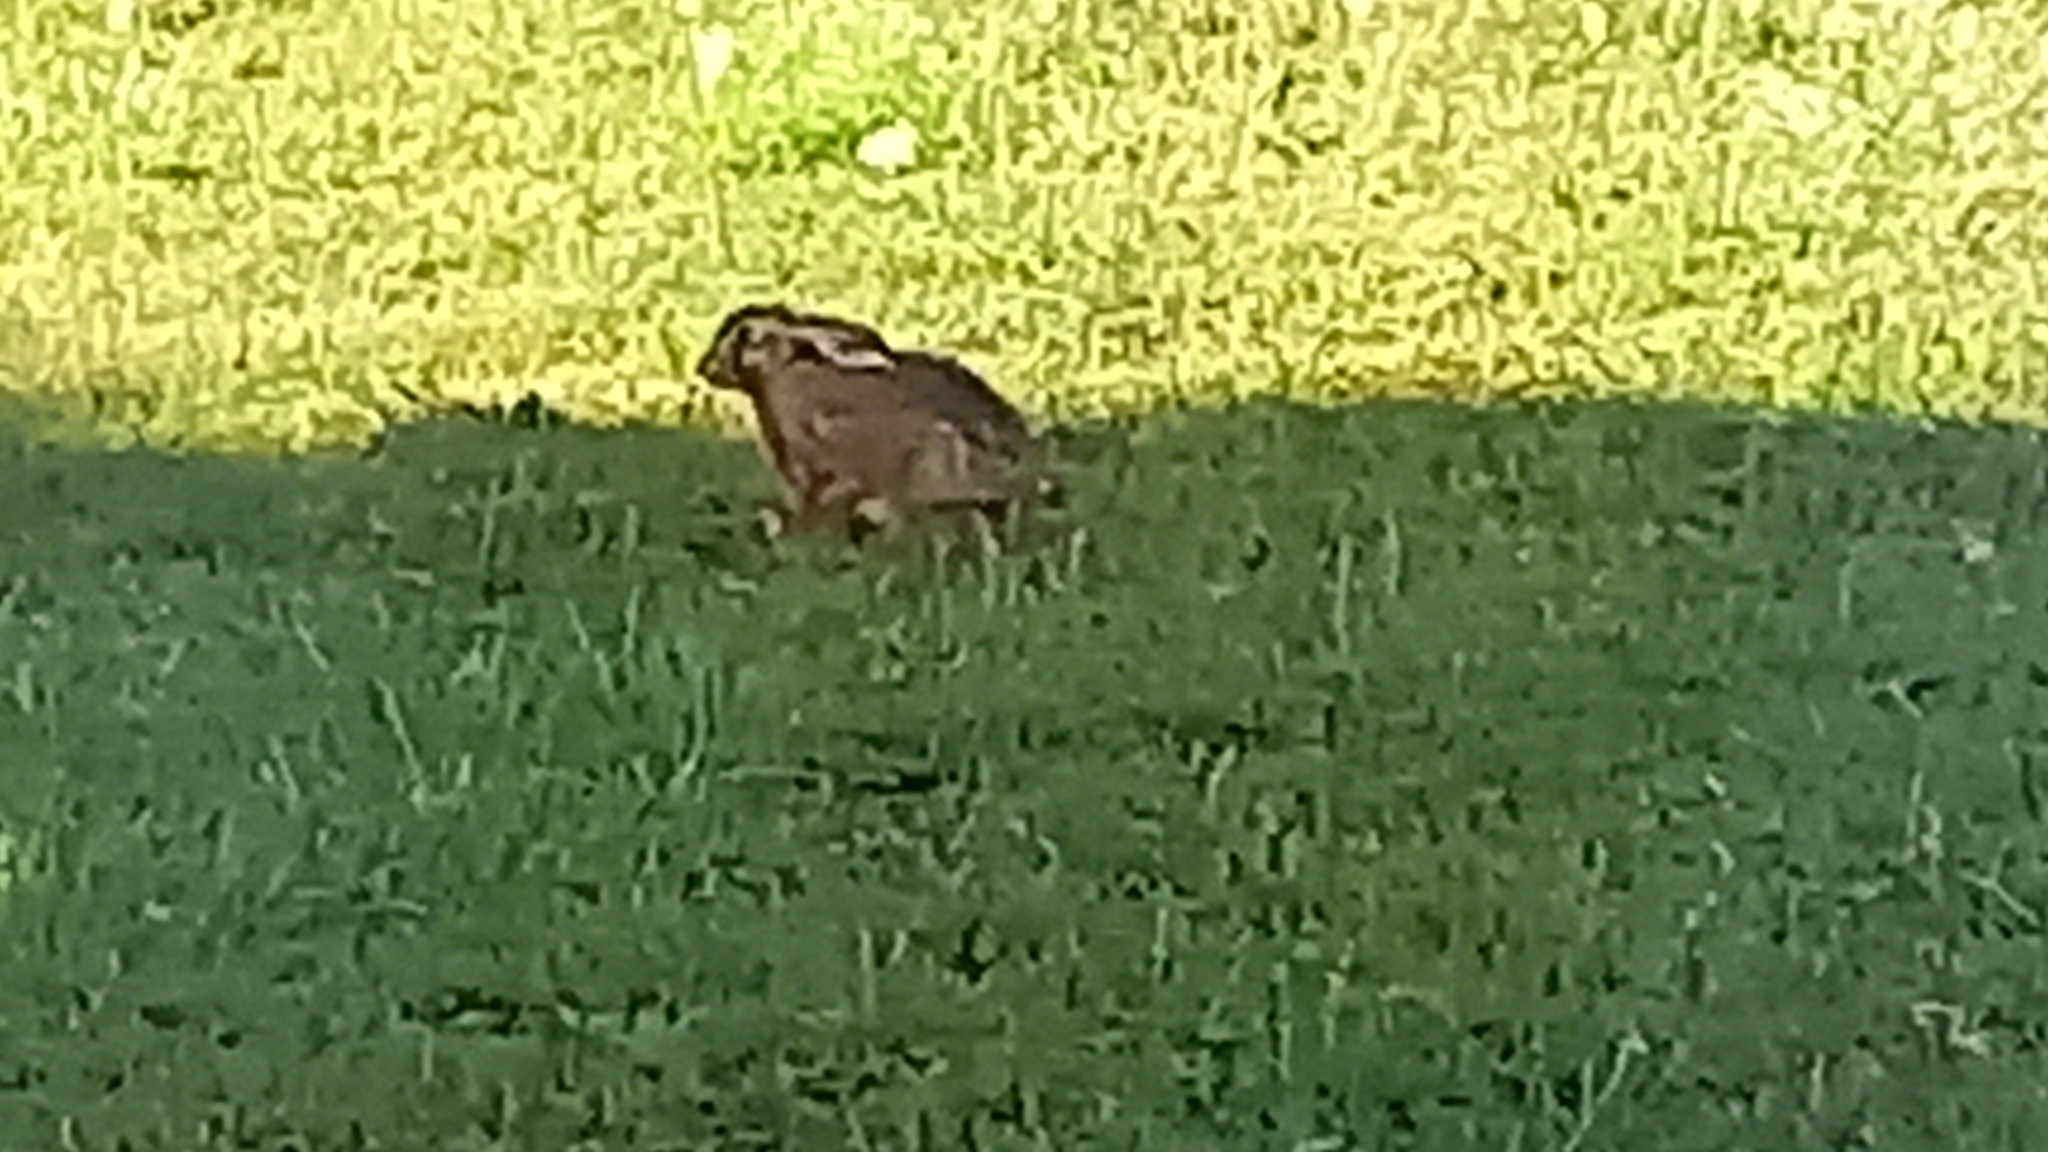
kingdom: Animalia
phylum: Chordata
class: Mammalia
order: Lagomorpha
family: Leporidae
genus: Lepus
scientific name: Lepus europaeus
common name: European hare
